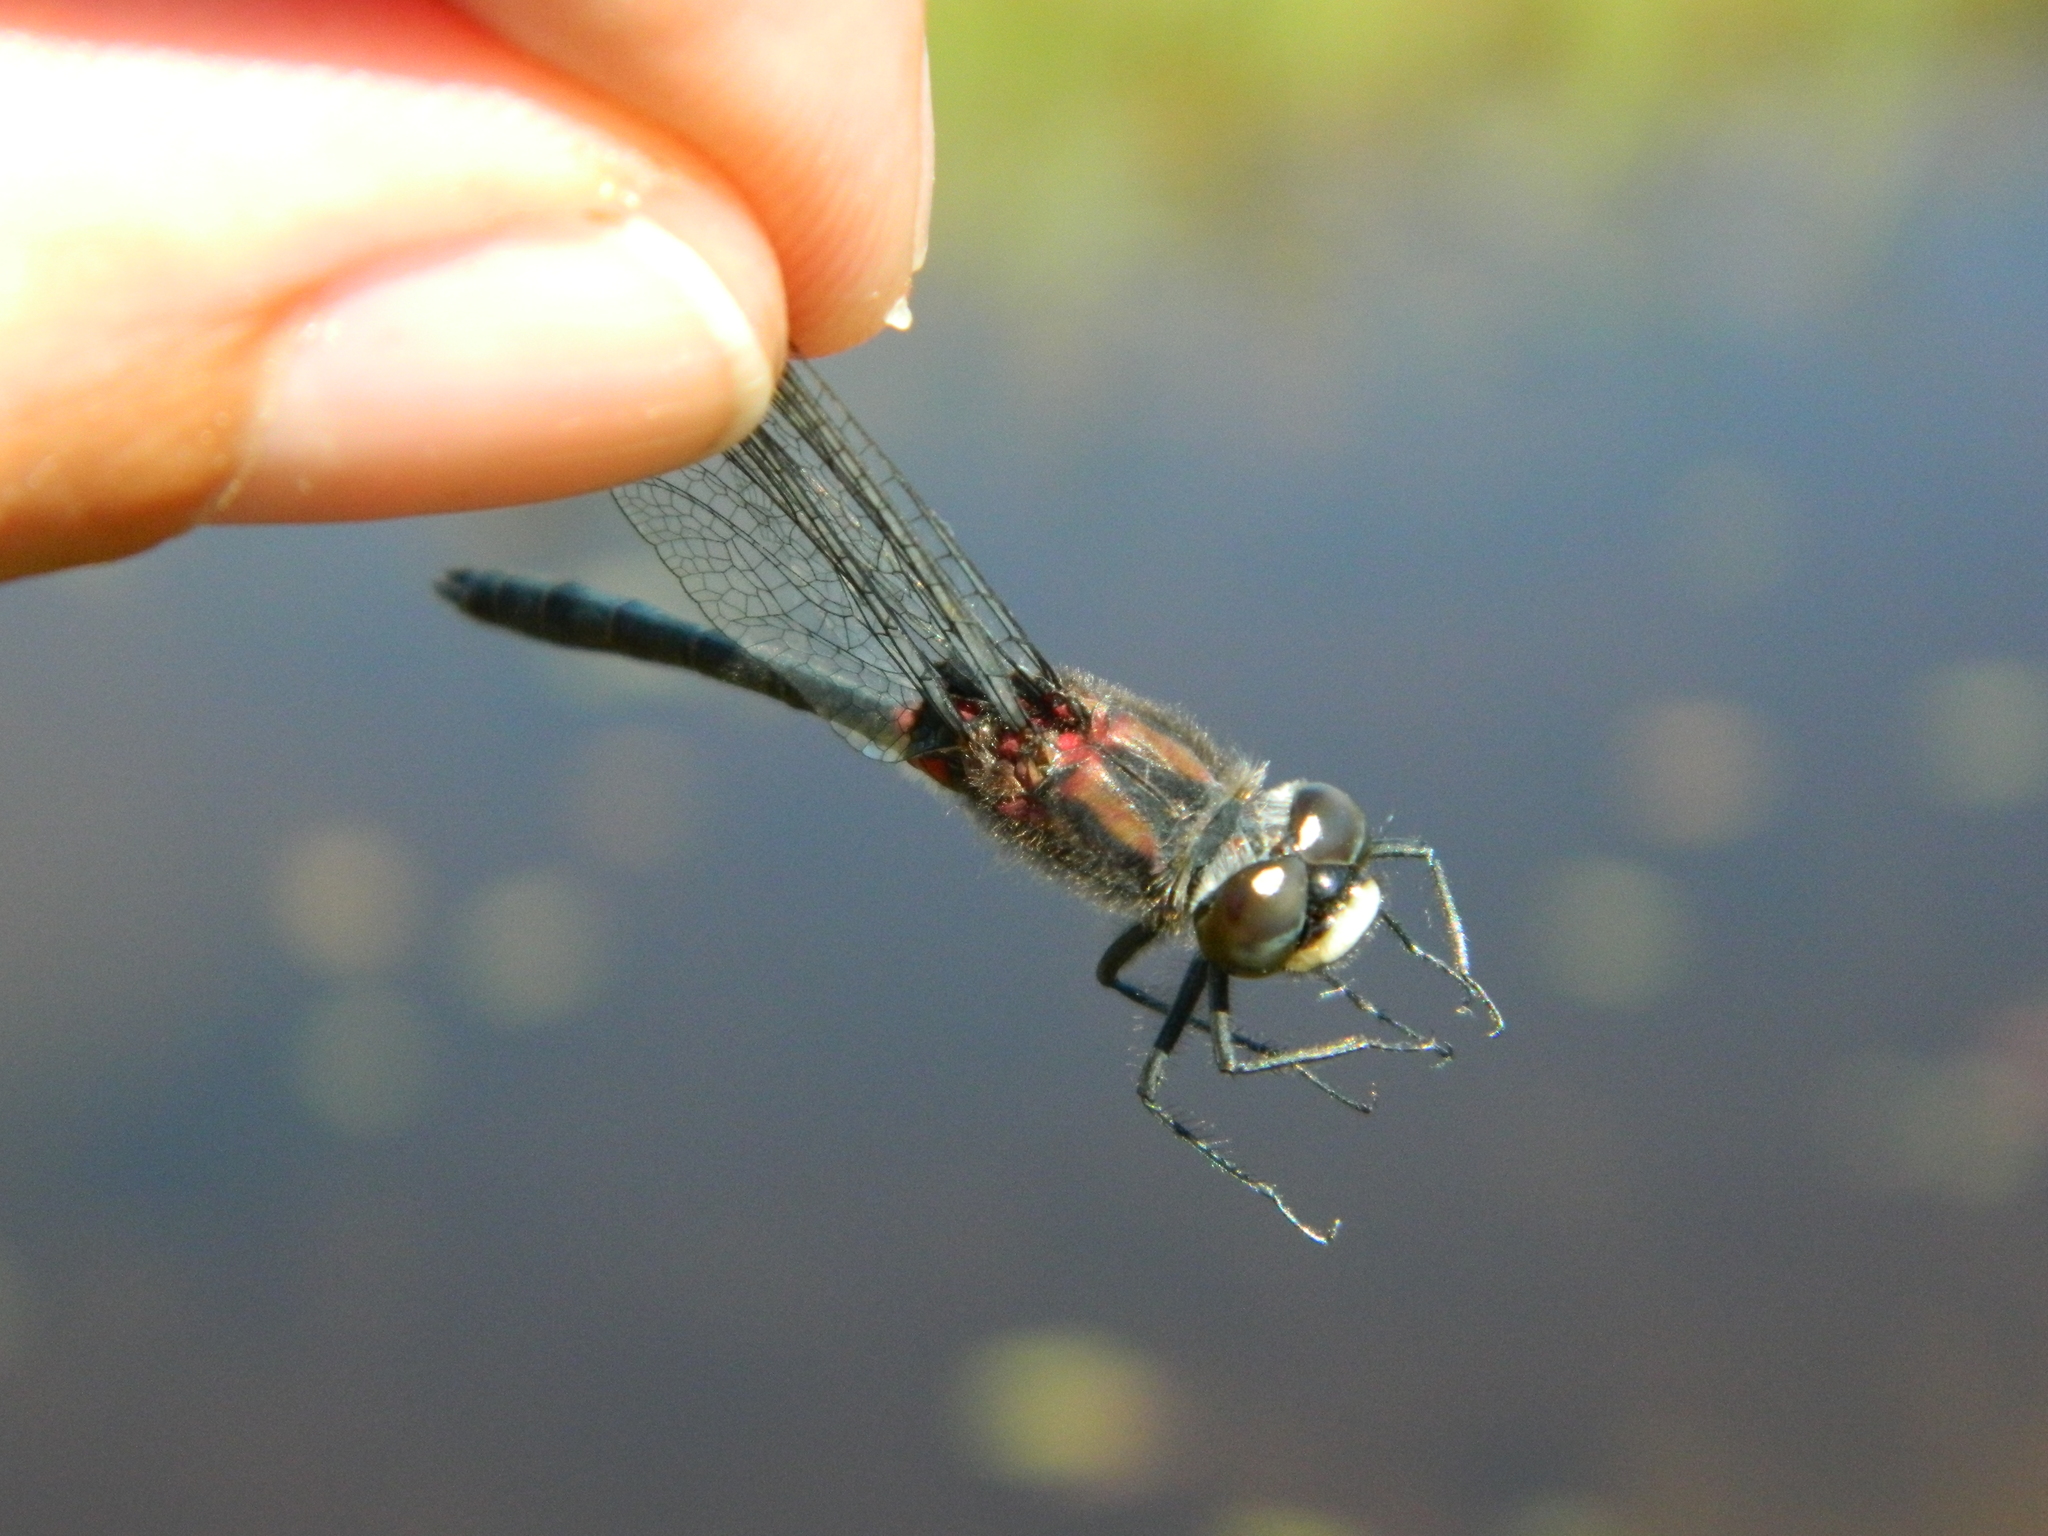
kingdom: Animalia
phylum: Arthropoda
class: Insecta
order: Odonata
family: Libellulidae
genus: Leucorrhinia
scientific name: Leucorrhinia glacialis
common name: Crimson-ringed whiteface
